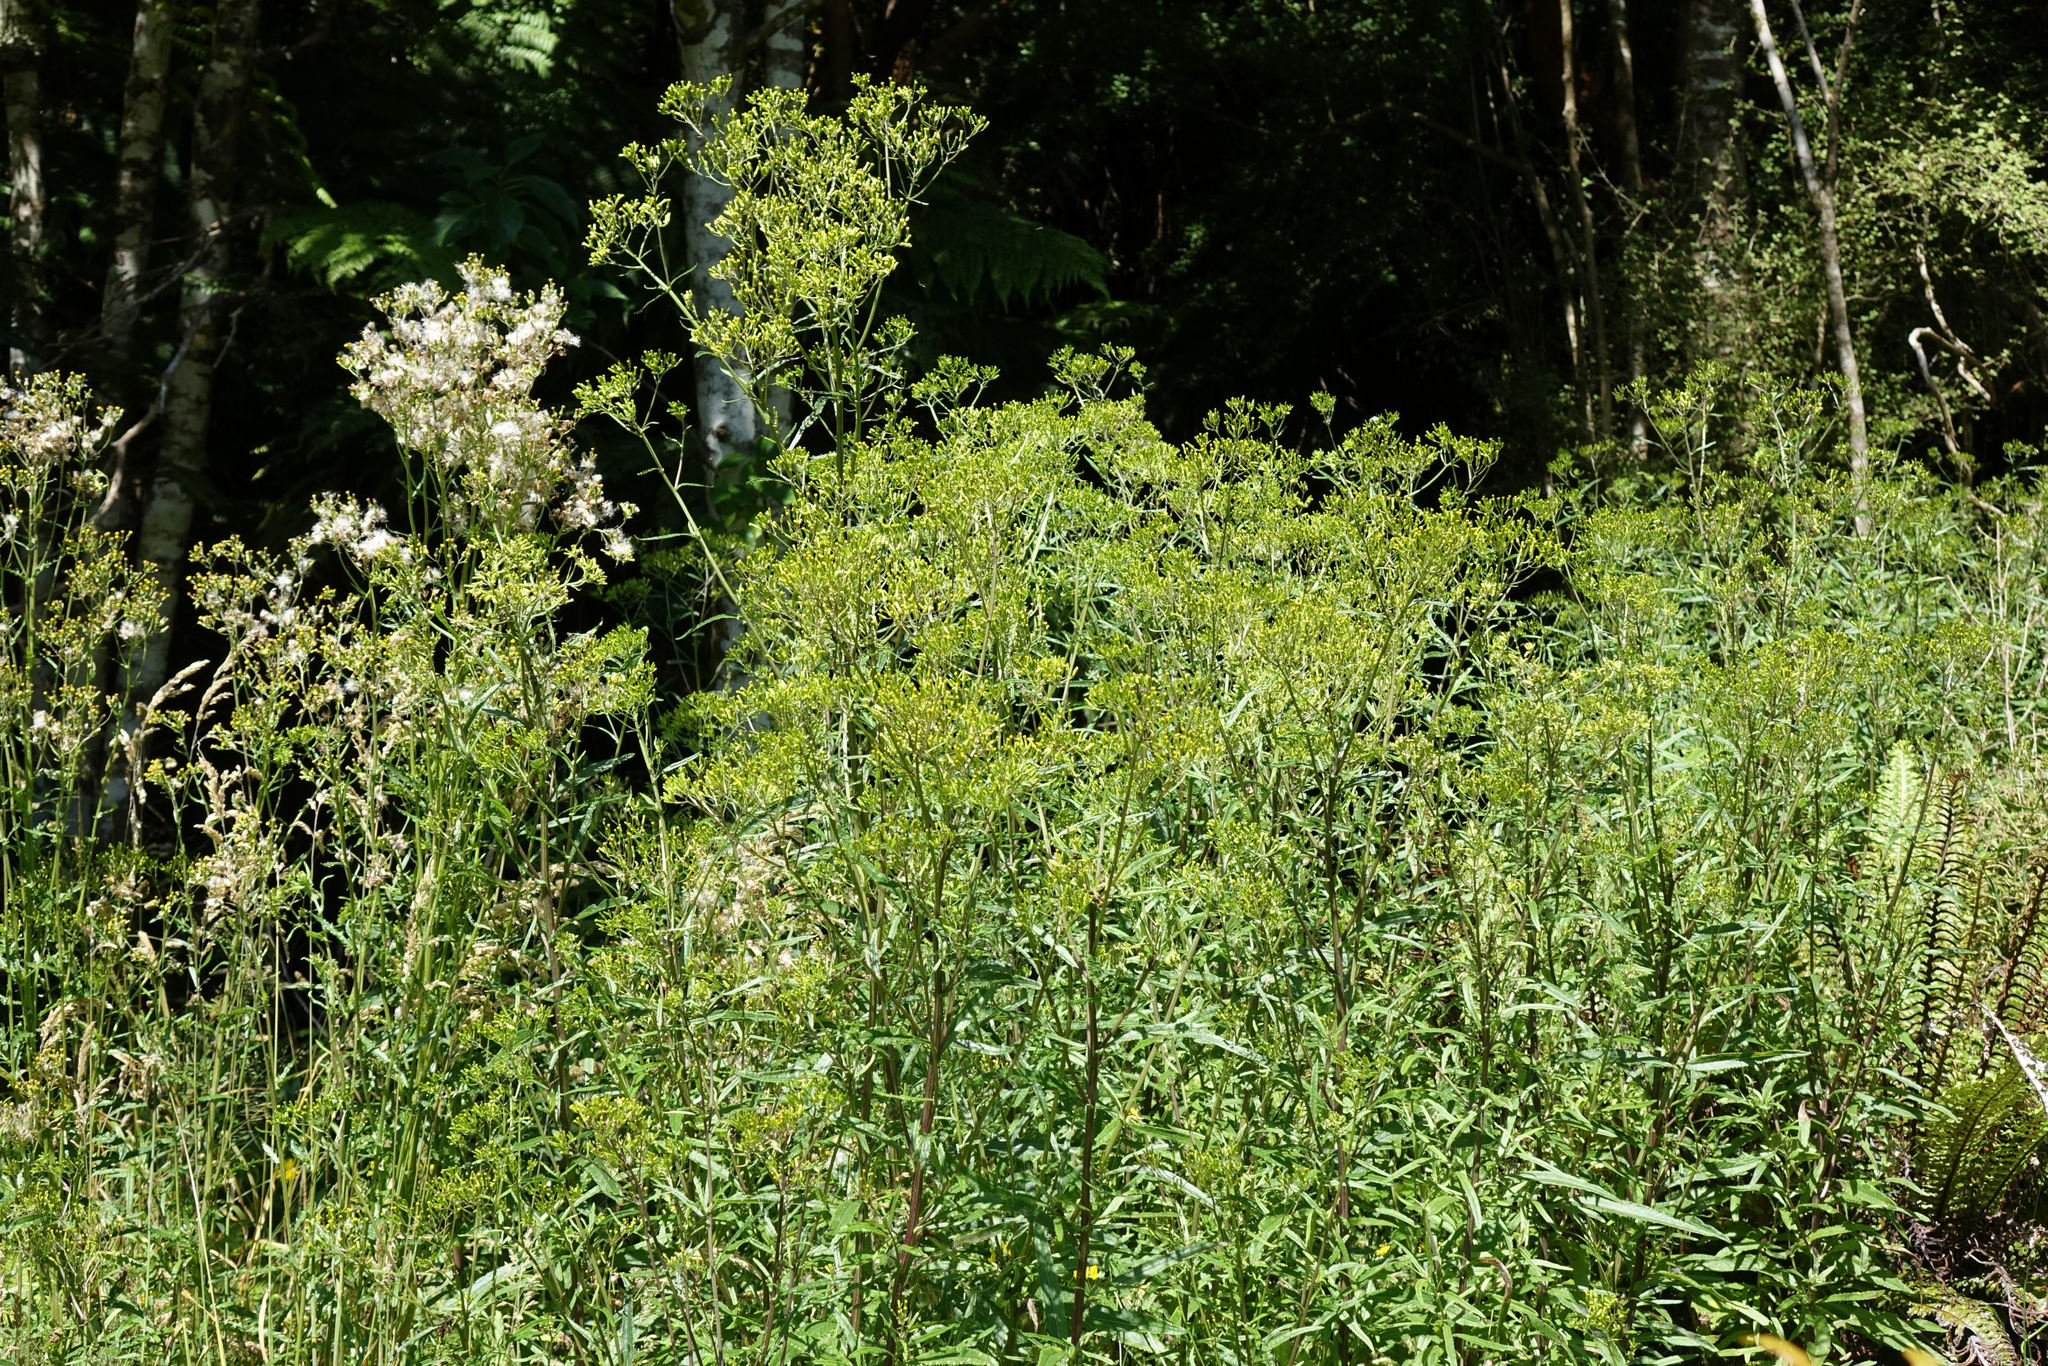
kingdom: Plantae
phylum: Tracheophyta
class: Magnoliopsida
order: Asterales
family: Asteraceae
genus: Senecio
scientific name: Senecio minimus
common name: Toothed fireweed
